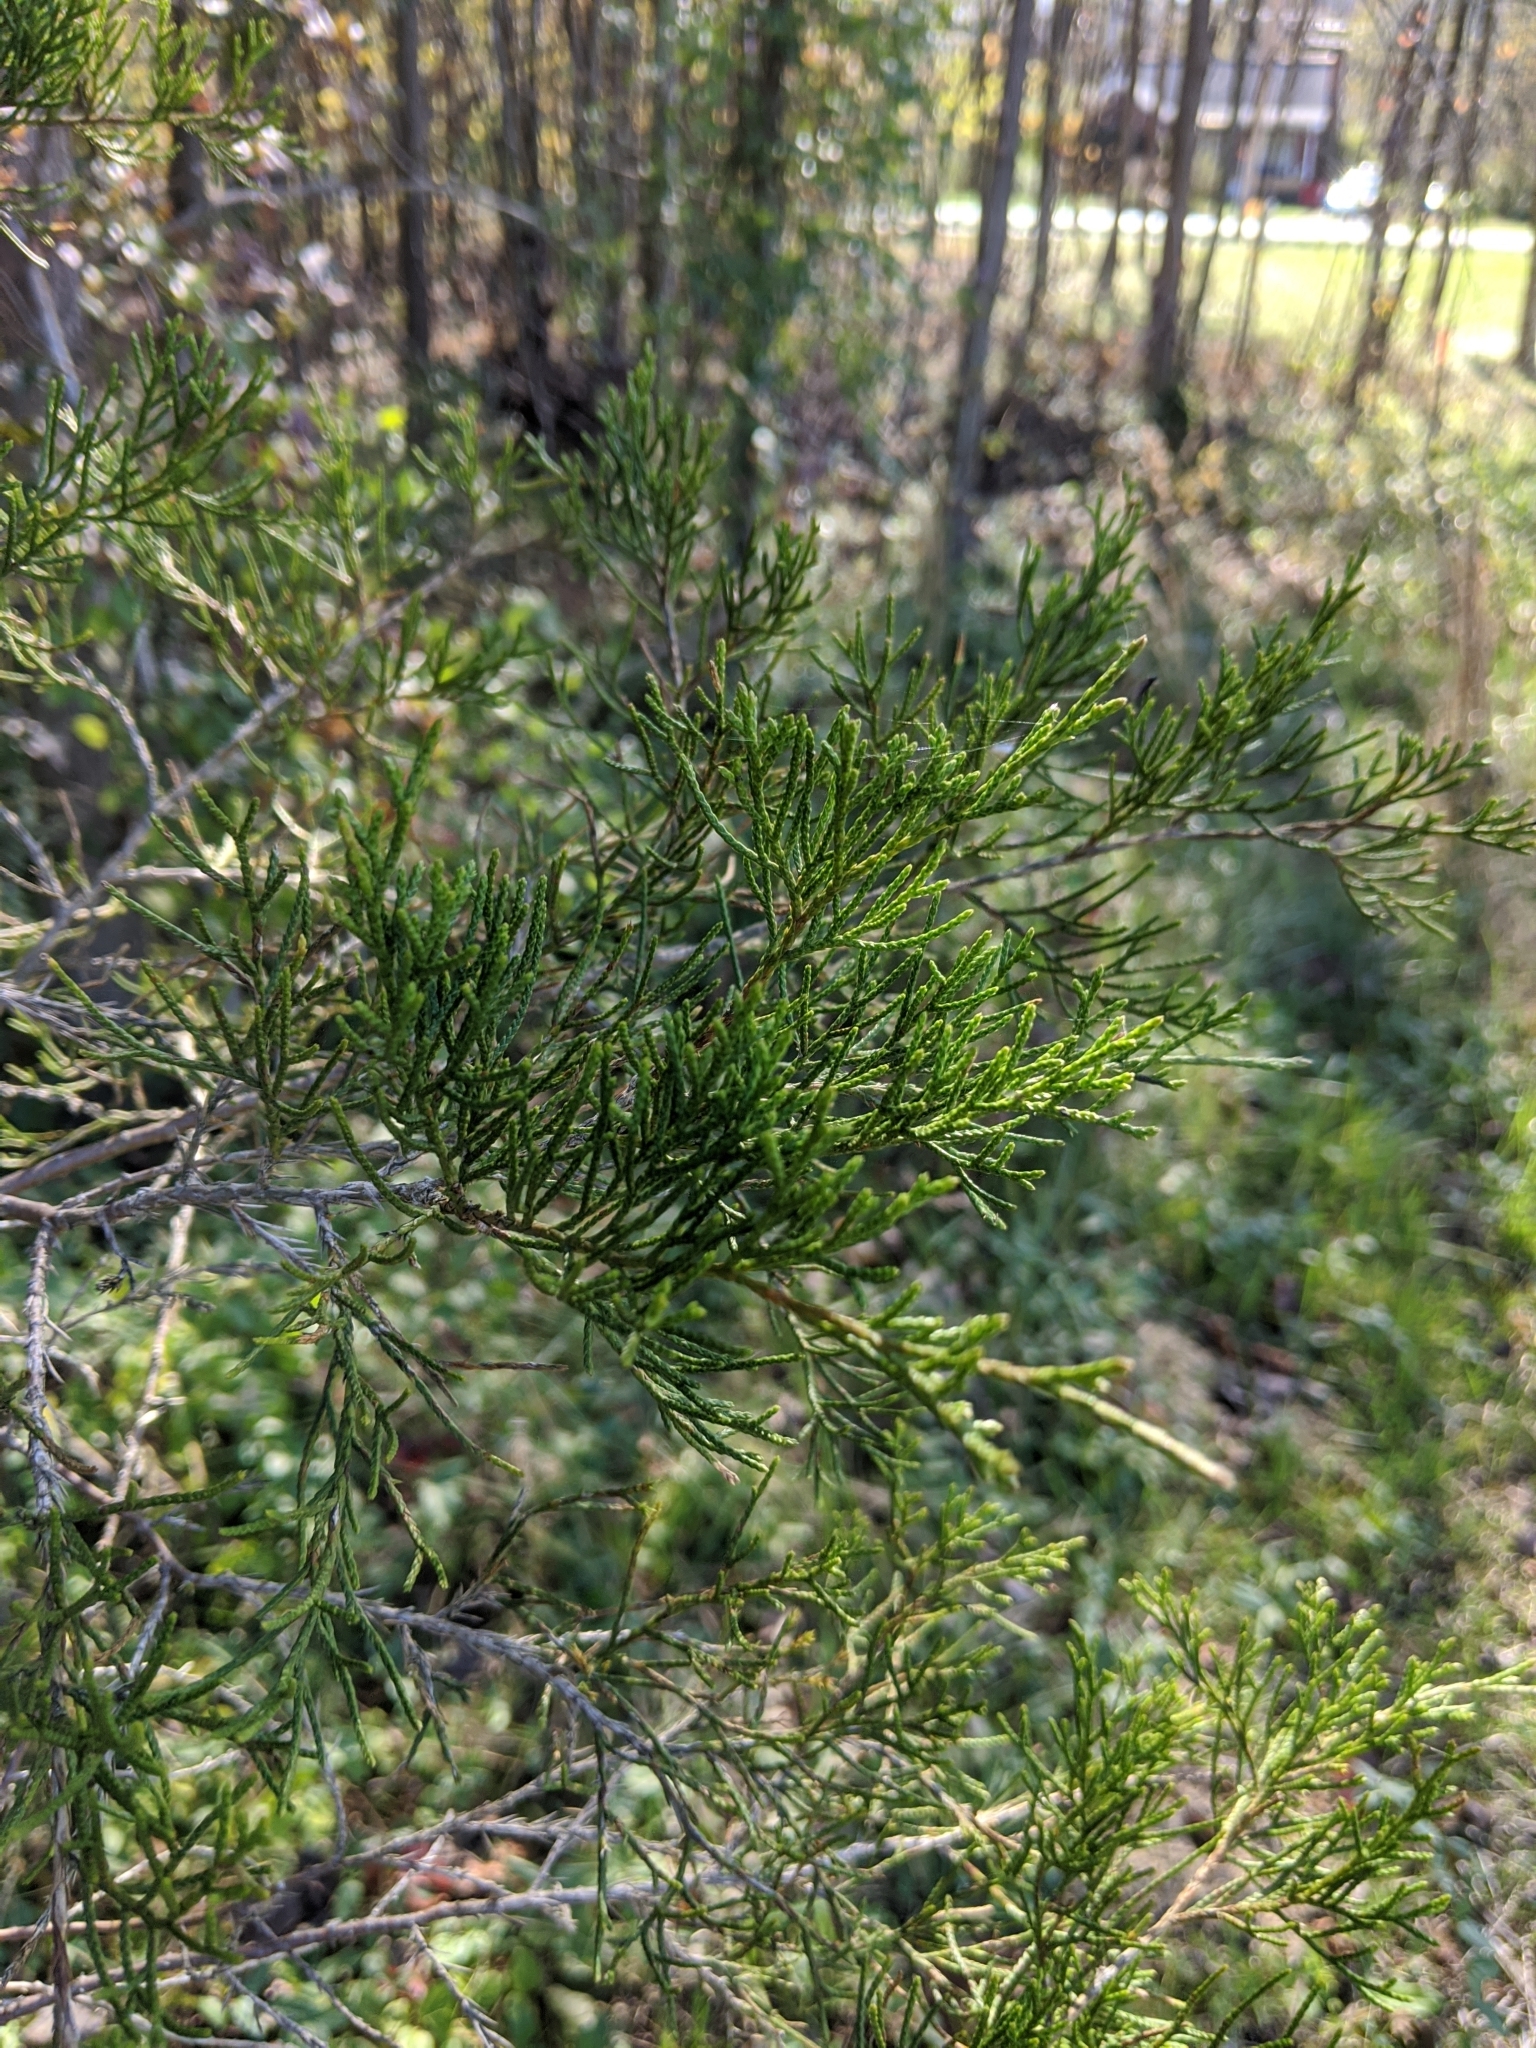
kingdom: Plantae
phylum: Tracheophyta
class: Pinopsida
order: Pinales
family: Cupressaceae
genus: Juniperus
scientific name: Juniperus virginiana
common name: Red juniper
